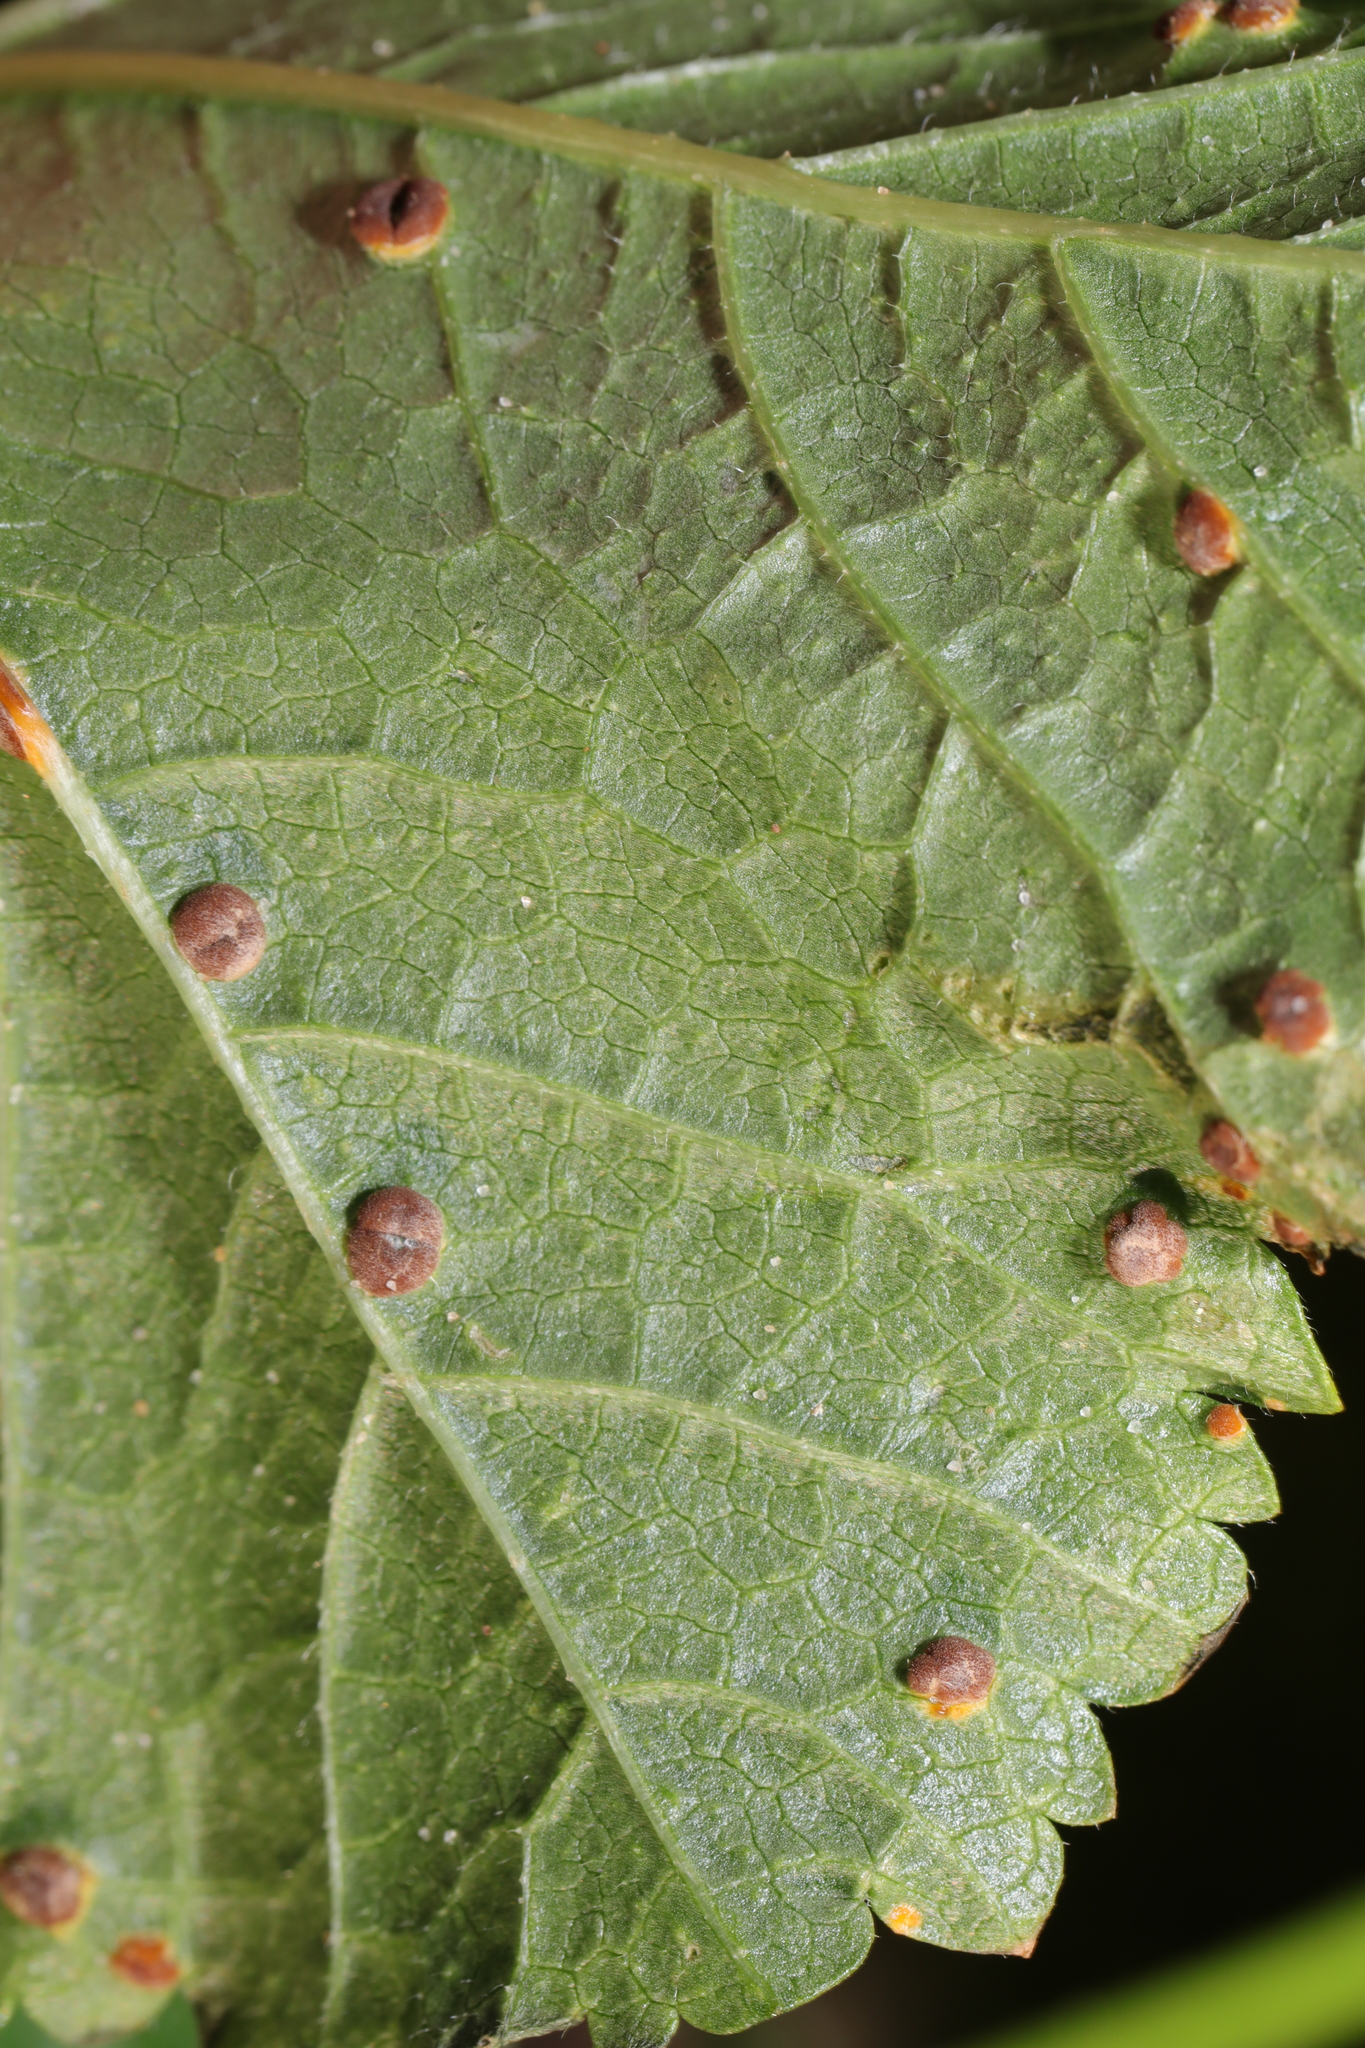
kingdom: Fungi
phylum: Basidiomycota
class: Pucciniomycetes
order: Pucciniales
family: Pucciniaceae
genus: Puccinia
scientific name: Puccinia malvacearum
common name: Hollyhock rust
